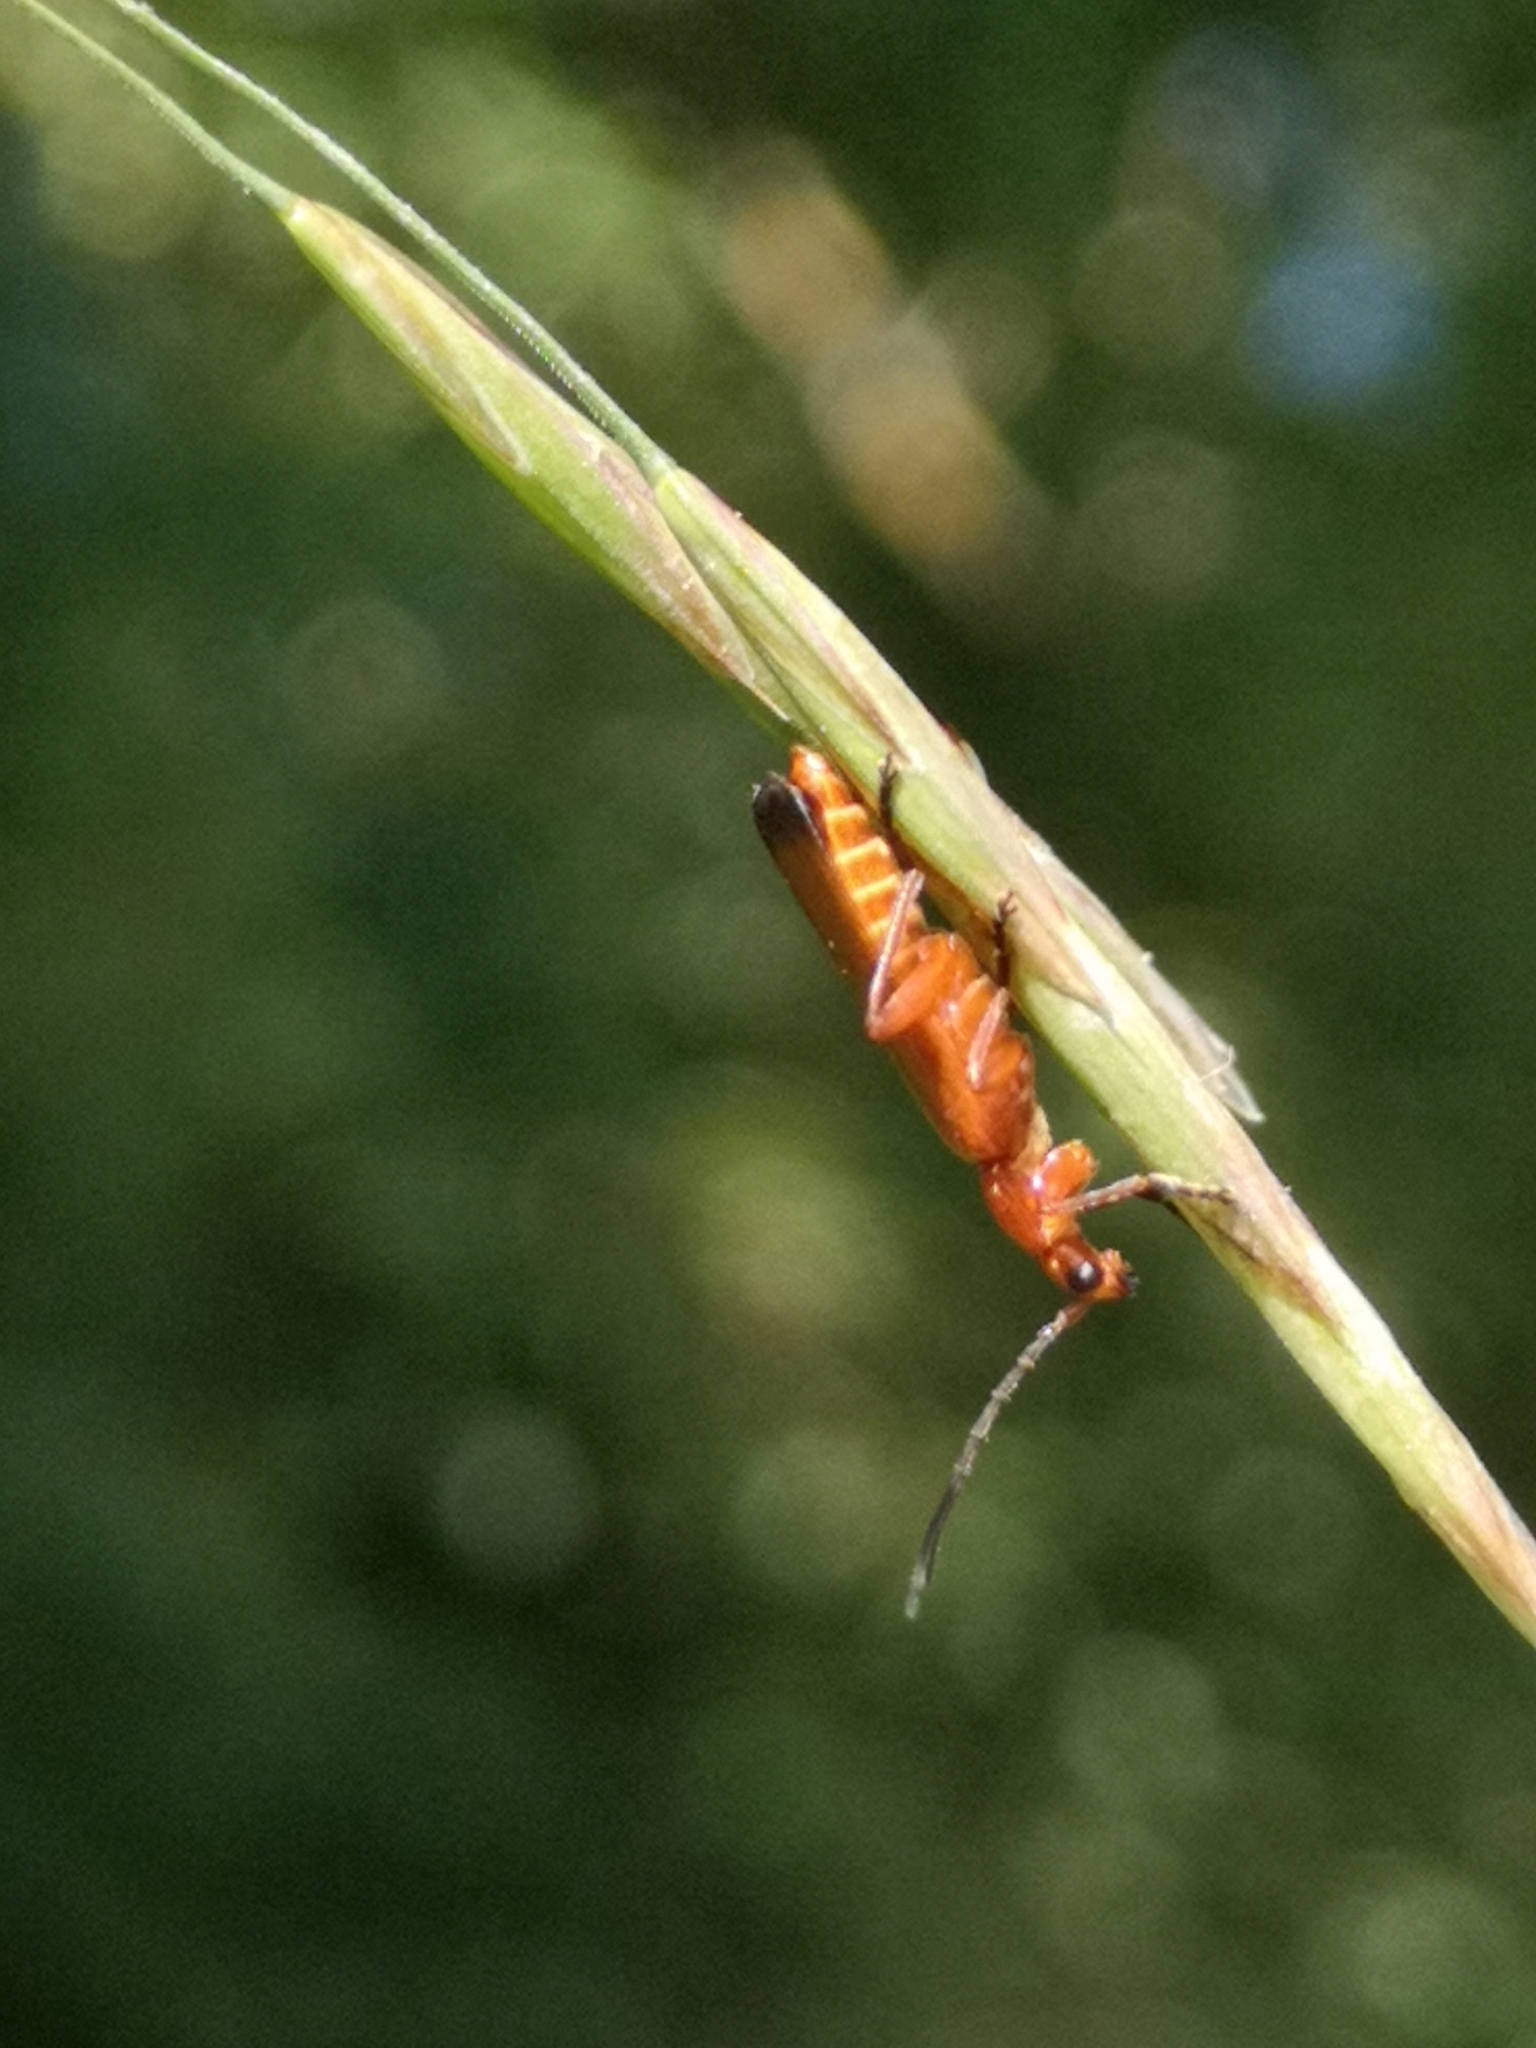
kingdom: Animalia
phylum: Arthropoda
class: Insecta
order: Coleoptera
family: Cantharidae
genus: Rhagonycha
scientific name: Rhagonycha fulva
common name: Common red soldier beetle
